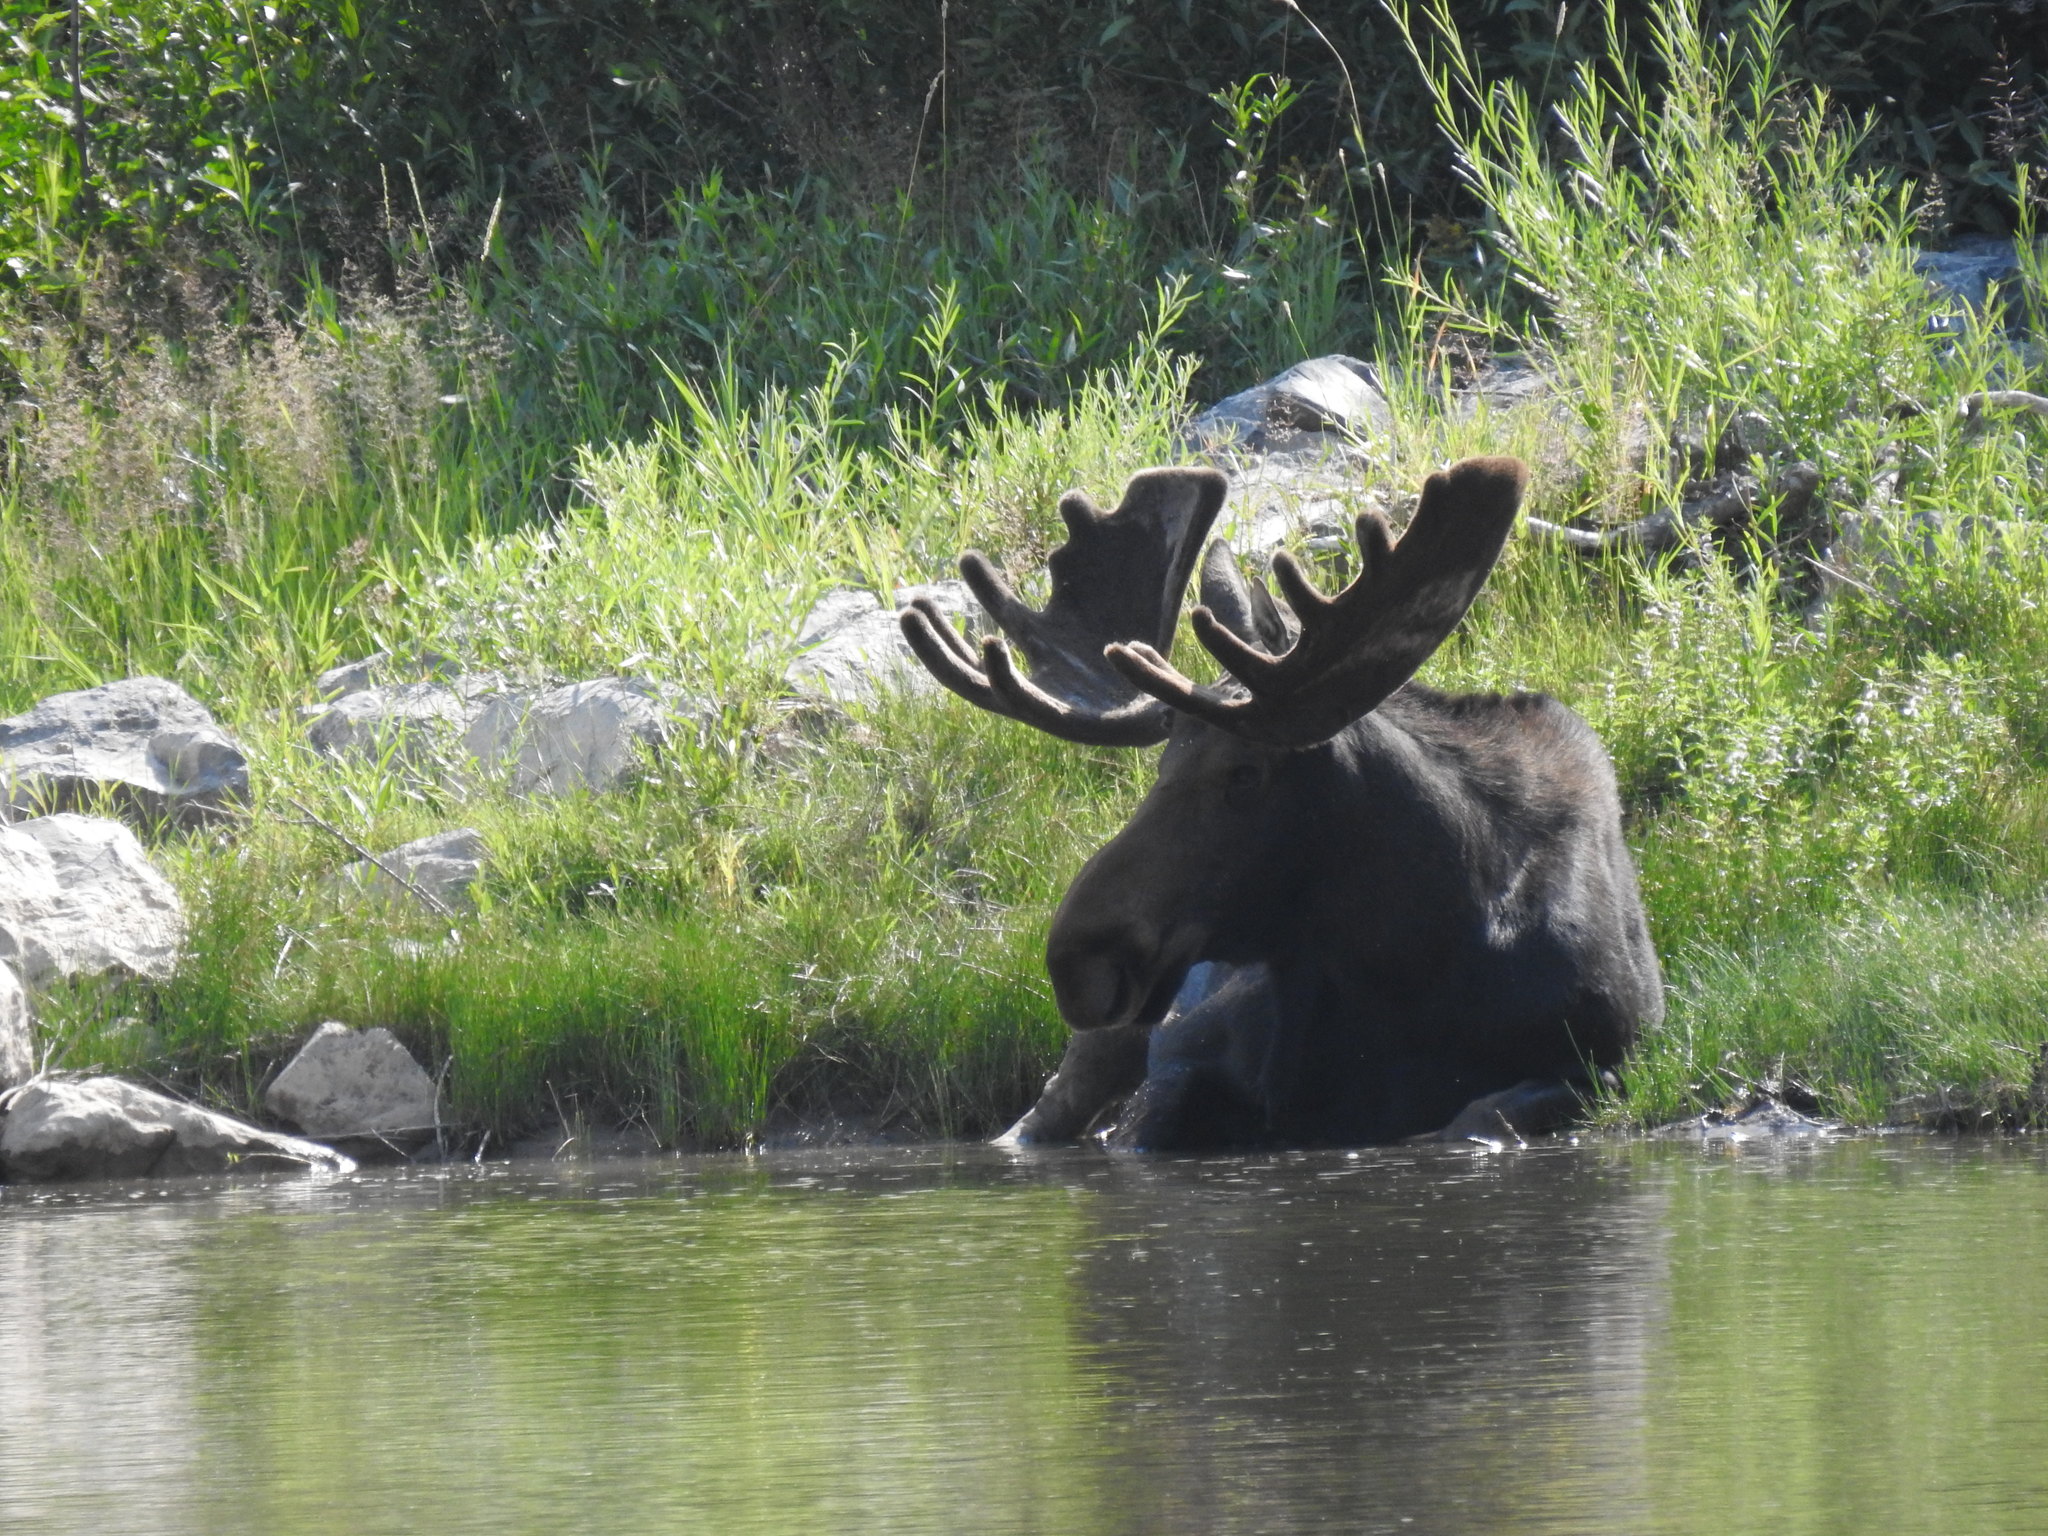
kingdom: Animalia
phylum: Chordata
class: Mammalia
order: Artiodactyla
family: Cervidae
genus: Alces
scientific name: Alces alces
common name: Moose
